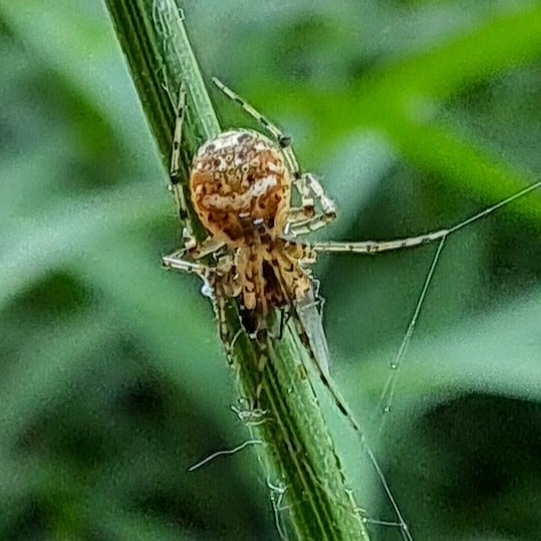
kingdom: Animalia
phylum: Arthropoda
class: Arachnida
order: Araneae
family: Theridiidae
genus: Platnickina
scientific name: Platnickina tincta
